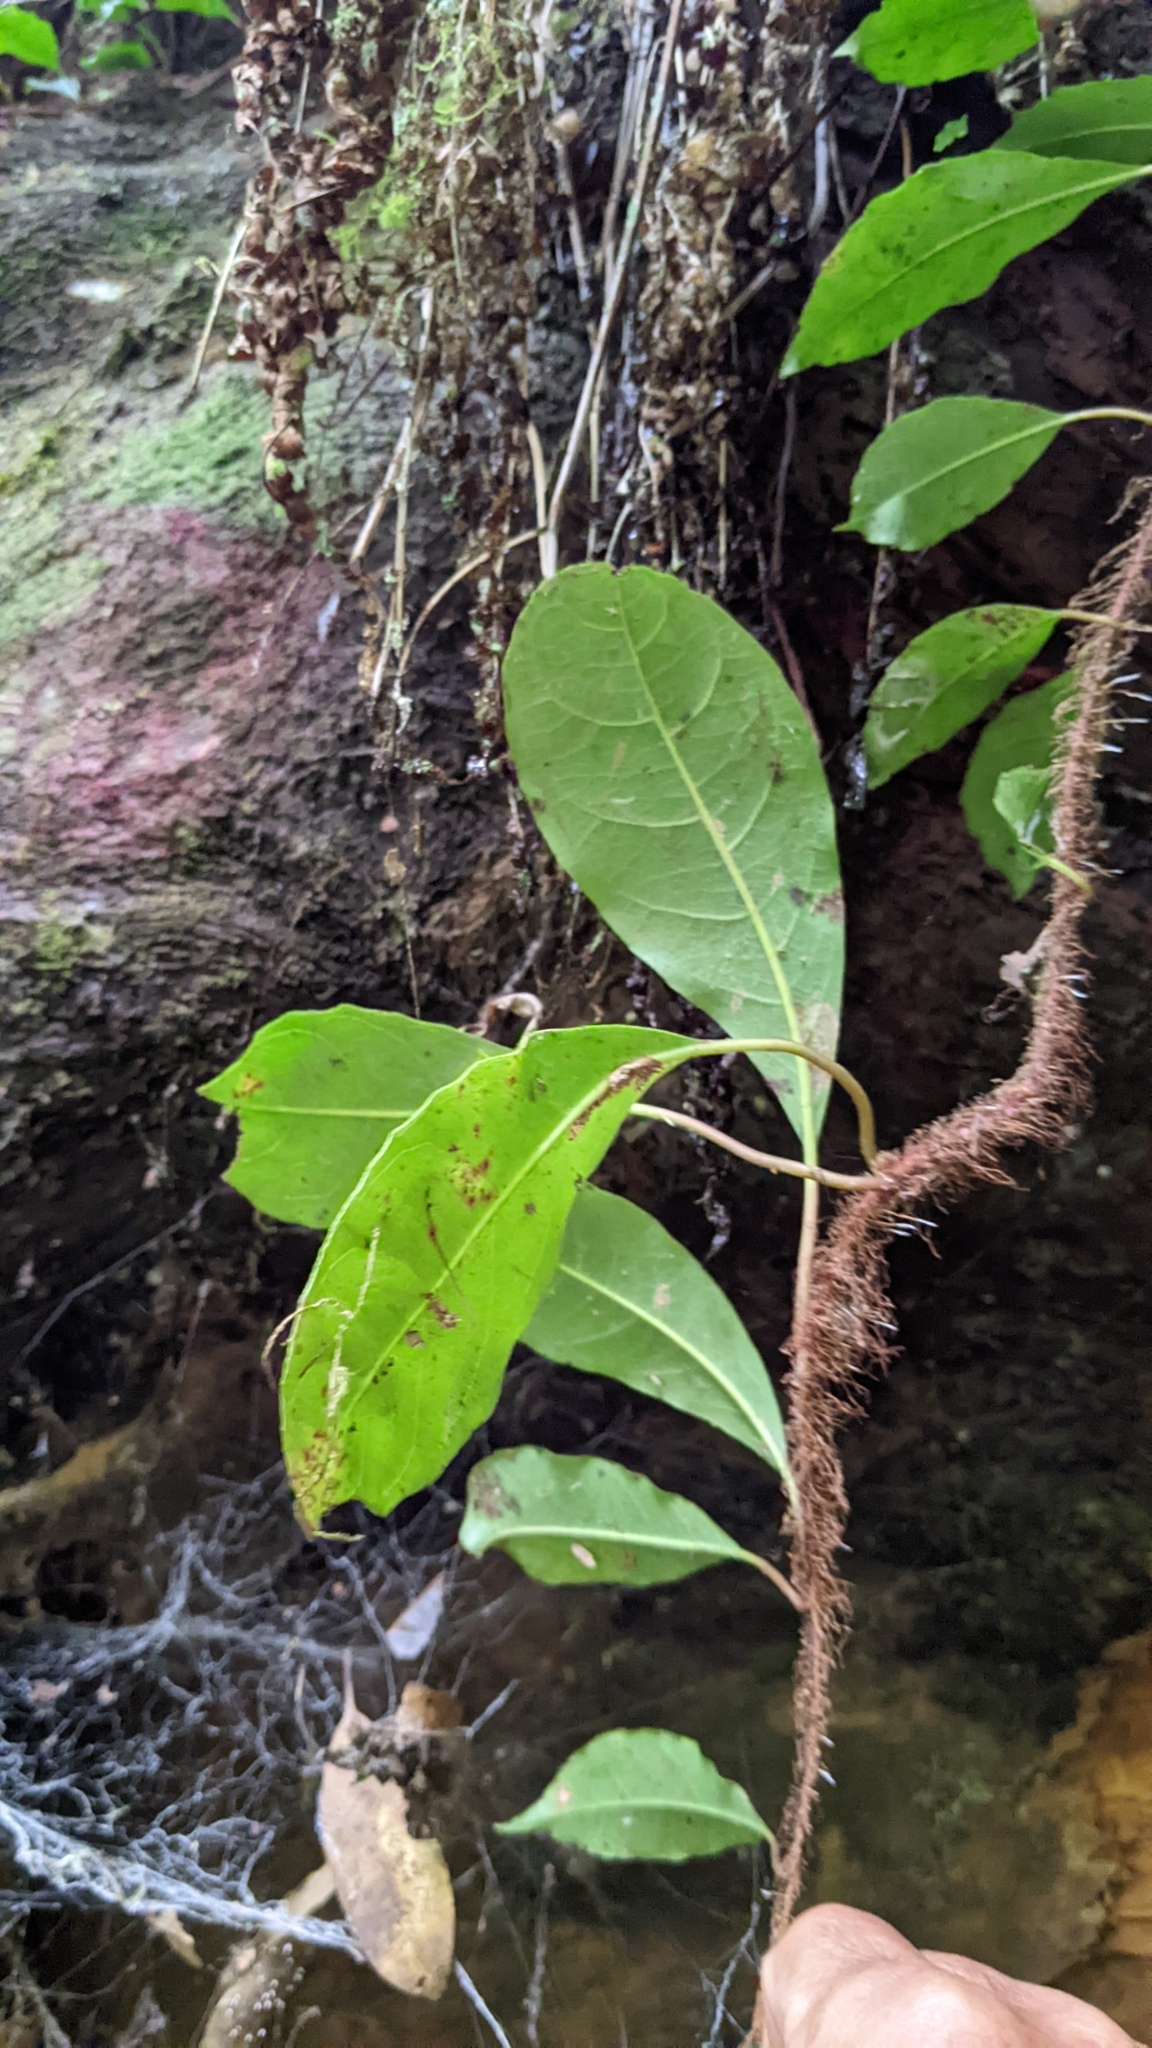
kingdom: Plantae
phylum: Tracheophyta
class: Magnoliopsida
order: Cornales
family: Hydrangeaceae
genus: Hydrangea
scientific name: Hydrangea integrifolia
